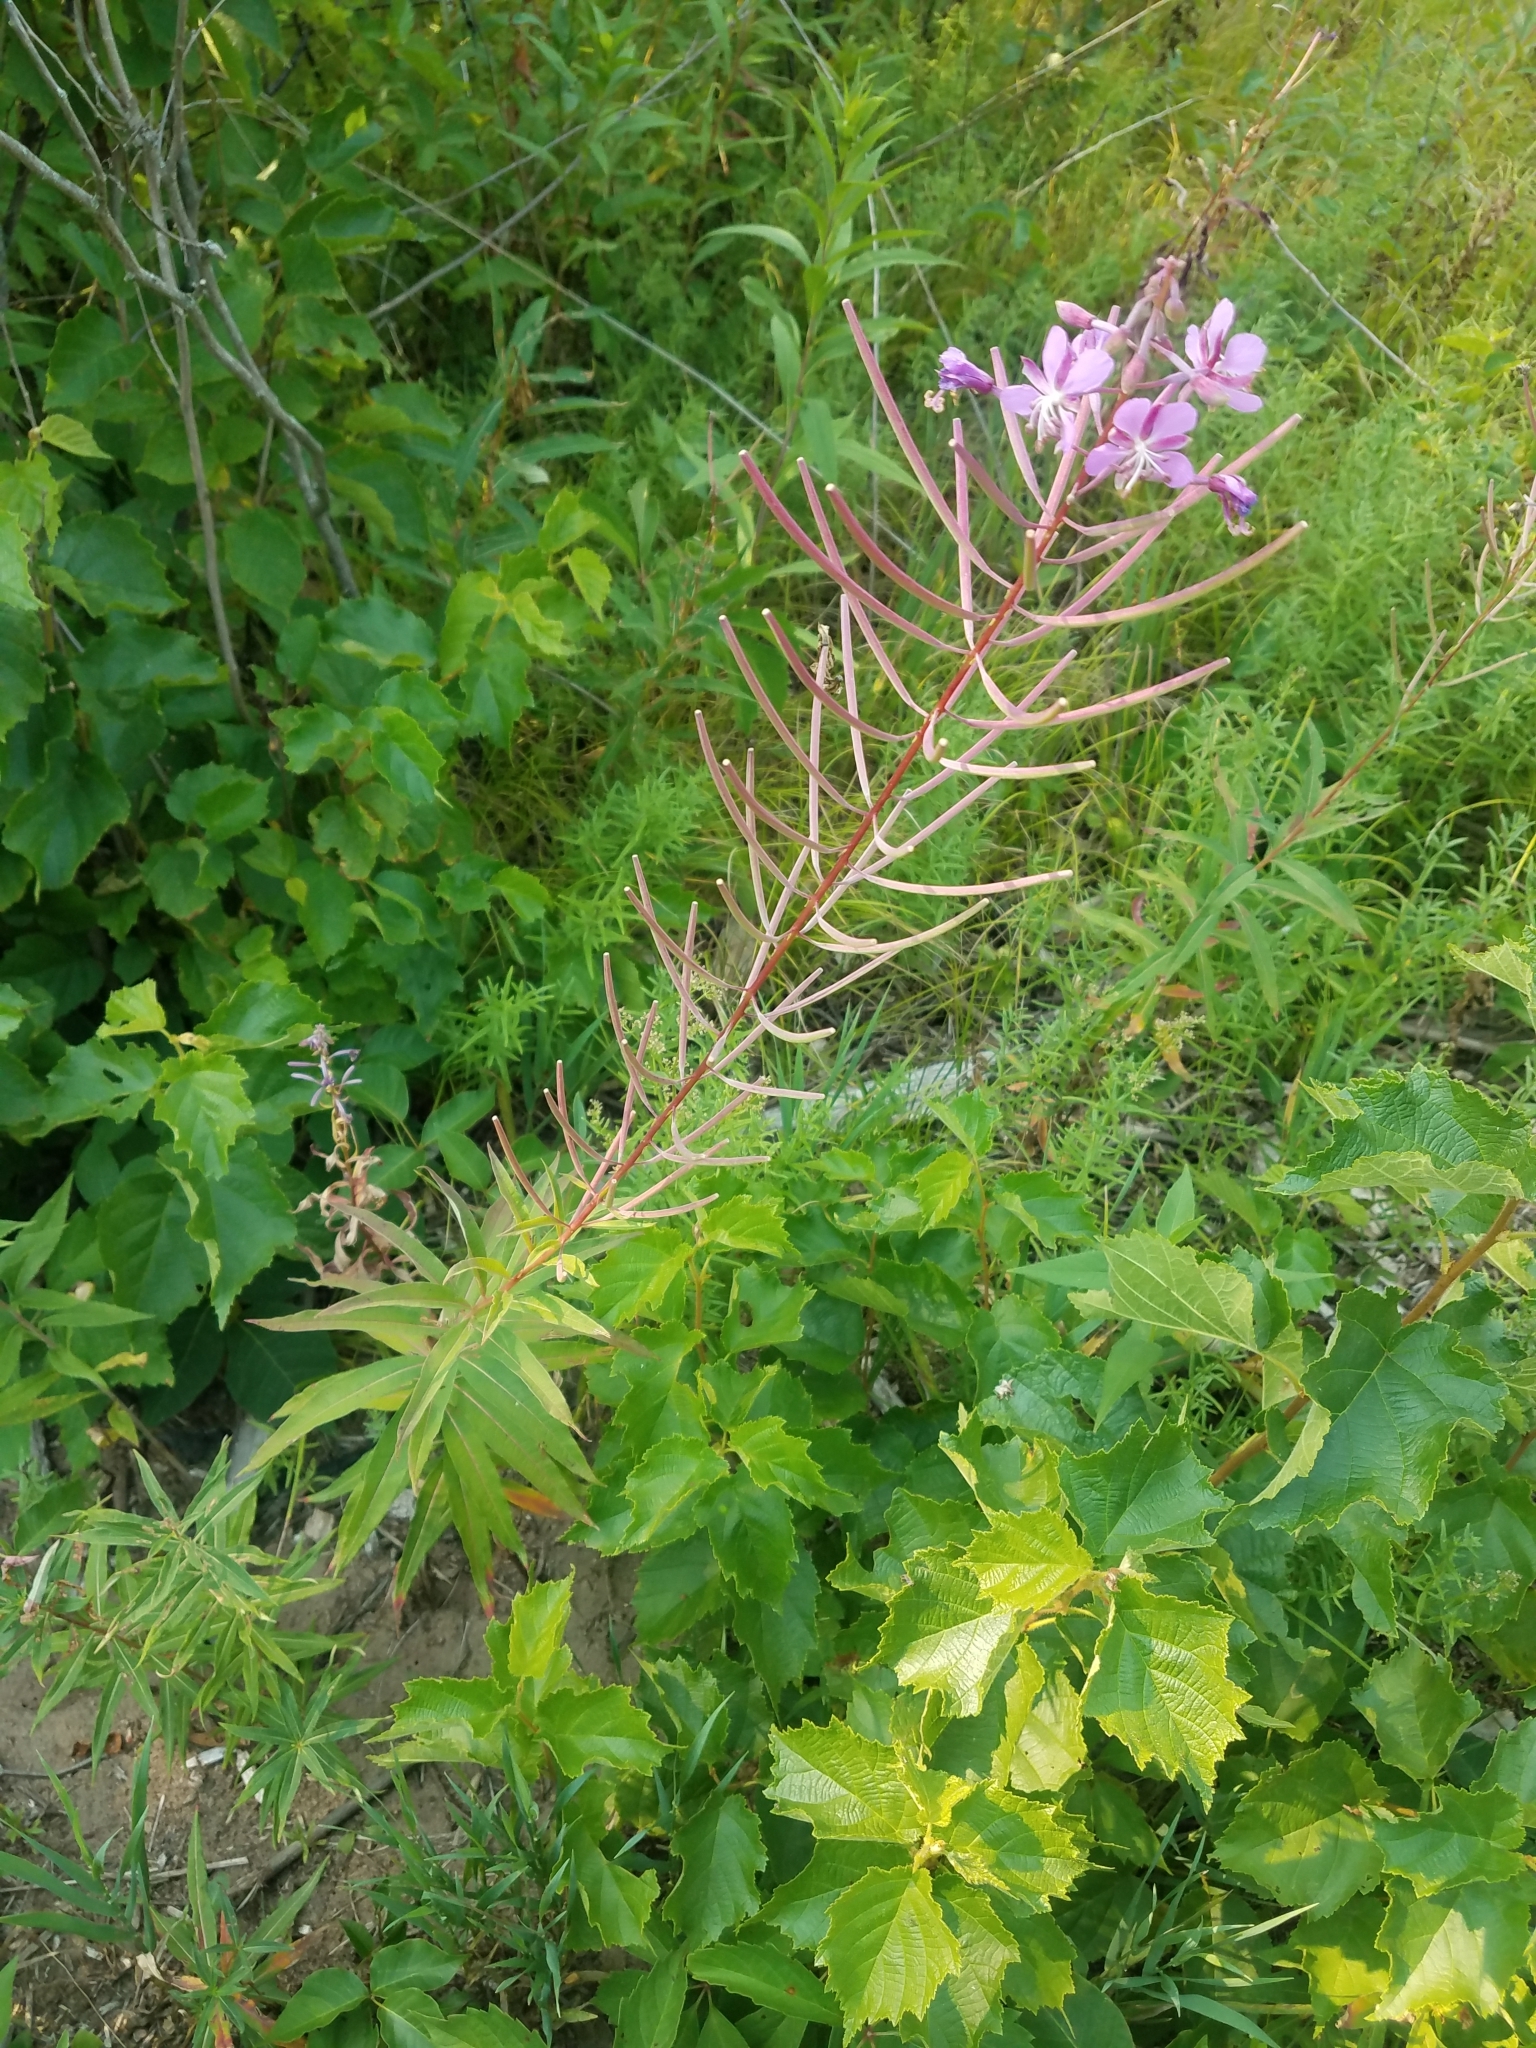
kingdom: Plantae
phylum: Tracheophyta
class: Magnoliopsida
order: Myrtales
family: Onagraceae
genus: Chamaenerion
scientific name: Chamaenerion angustifolium
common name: Fireweed
